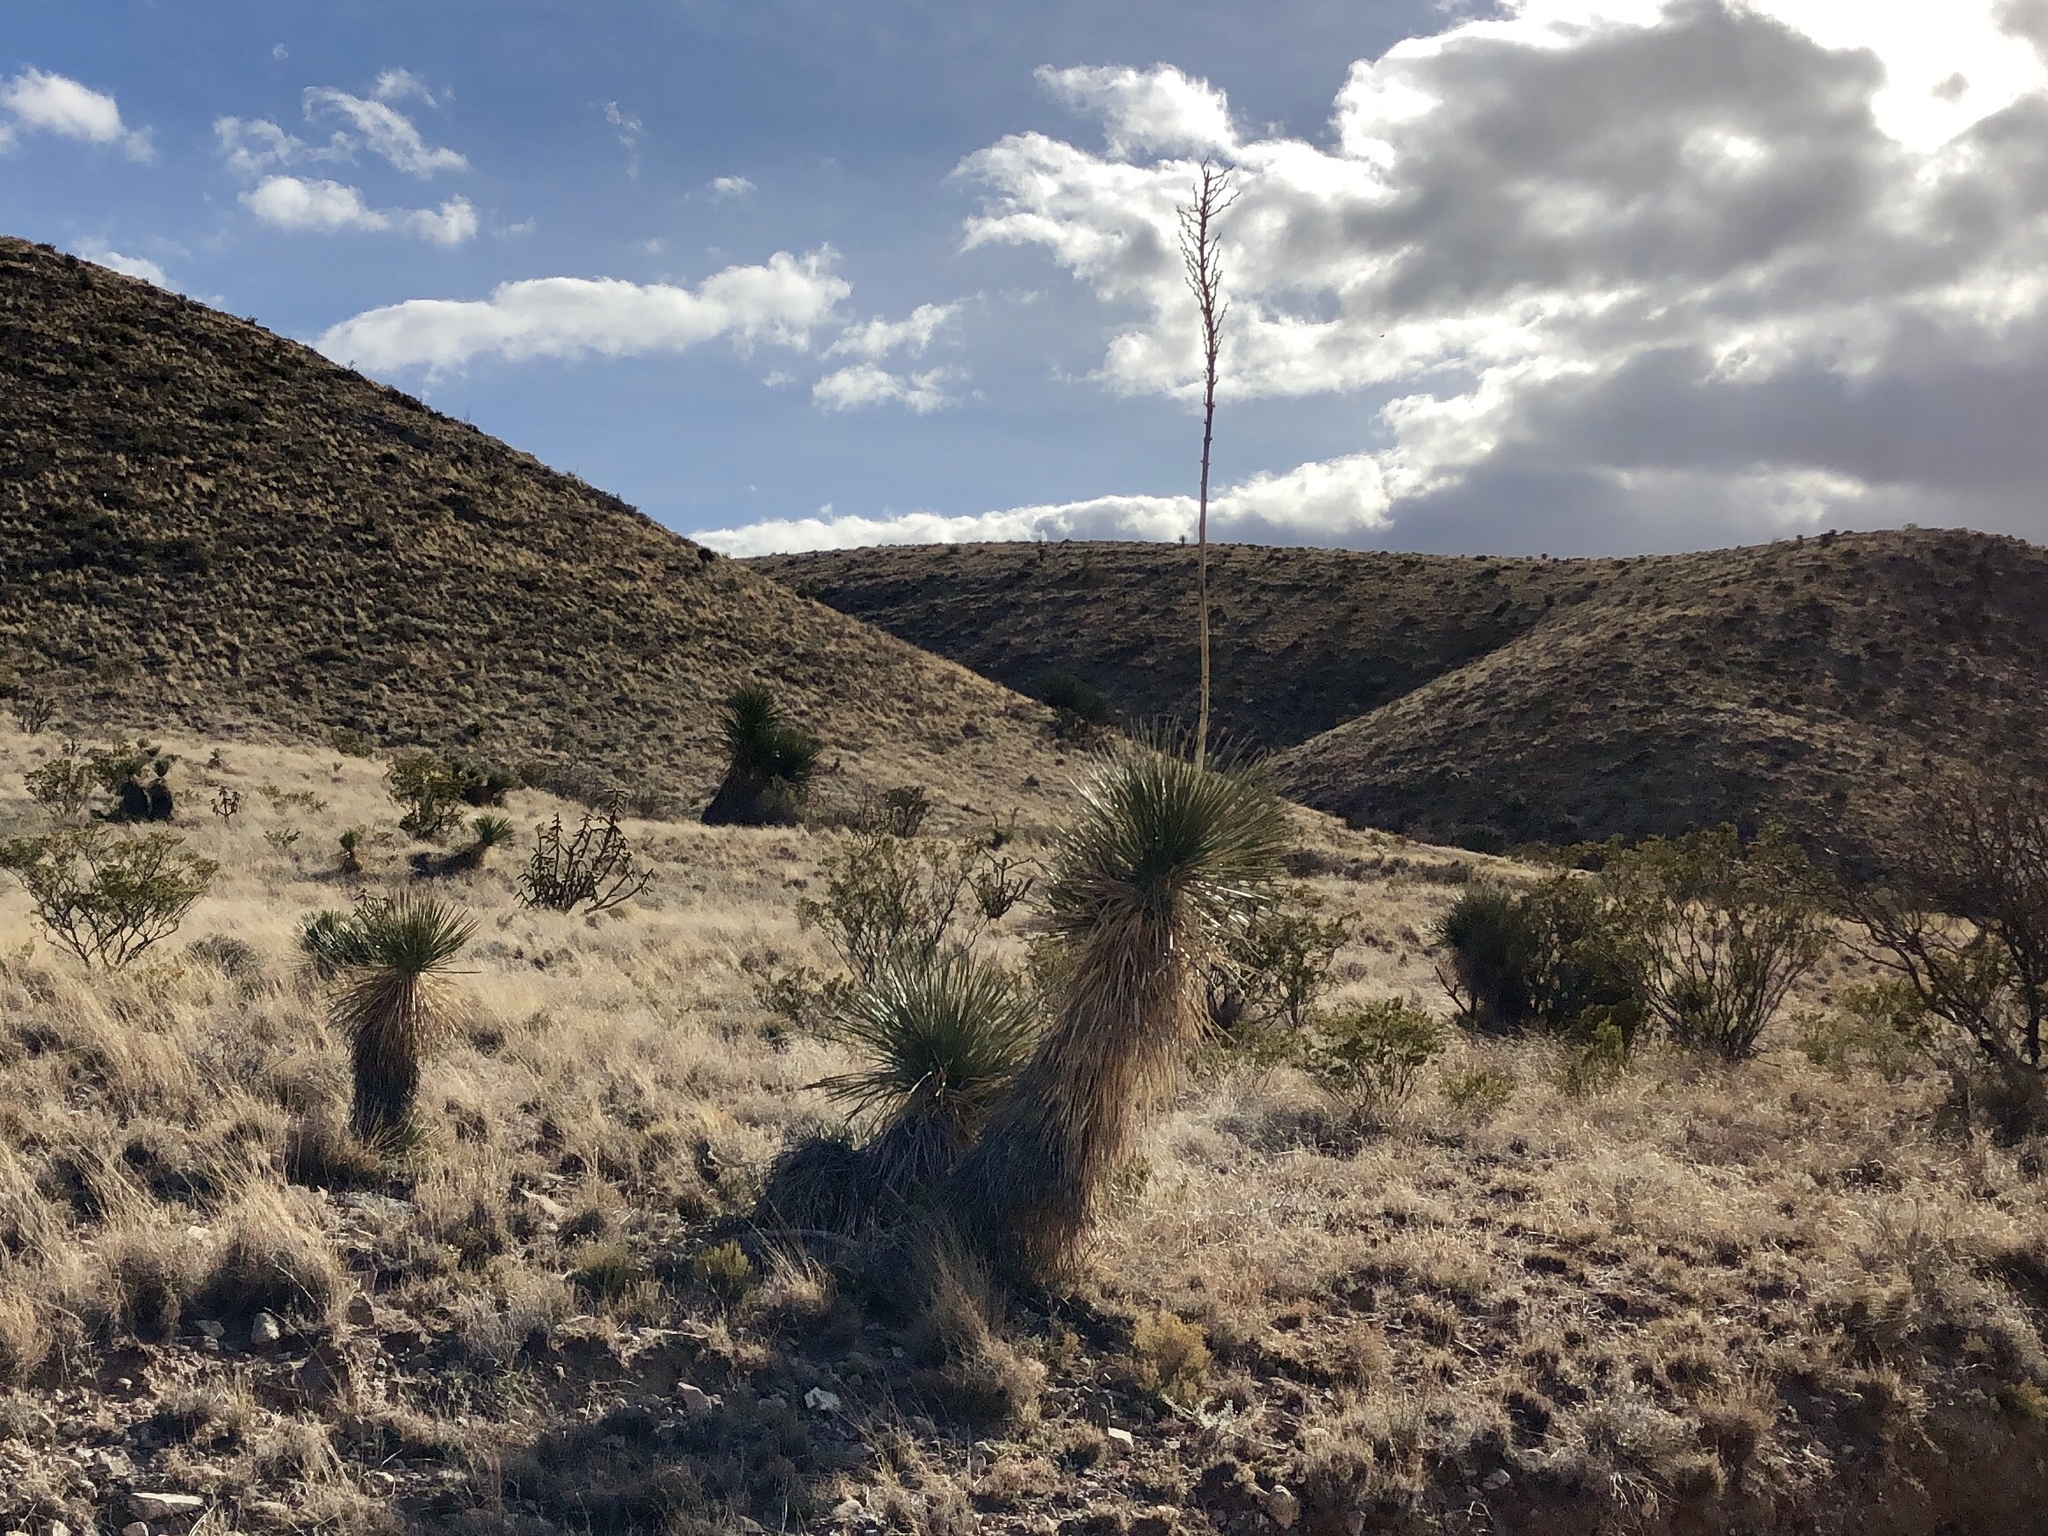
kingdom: Plantae
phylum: Tracheophyta
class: Liliopsida
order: Asparagales
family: Asparagaceae
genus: Yucca
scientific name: Yucca elata
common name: Palmella
